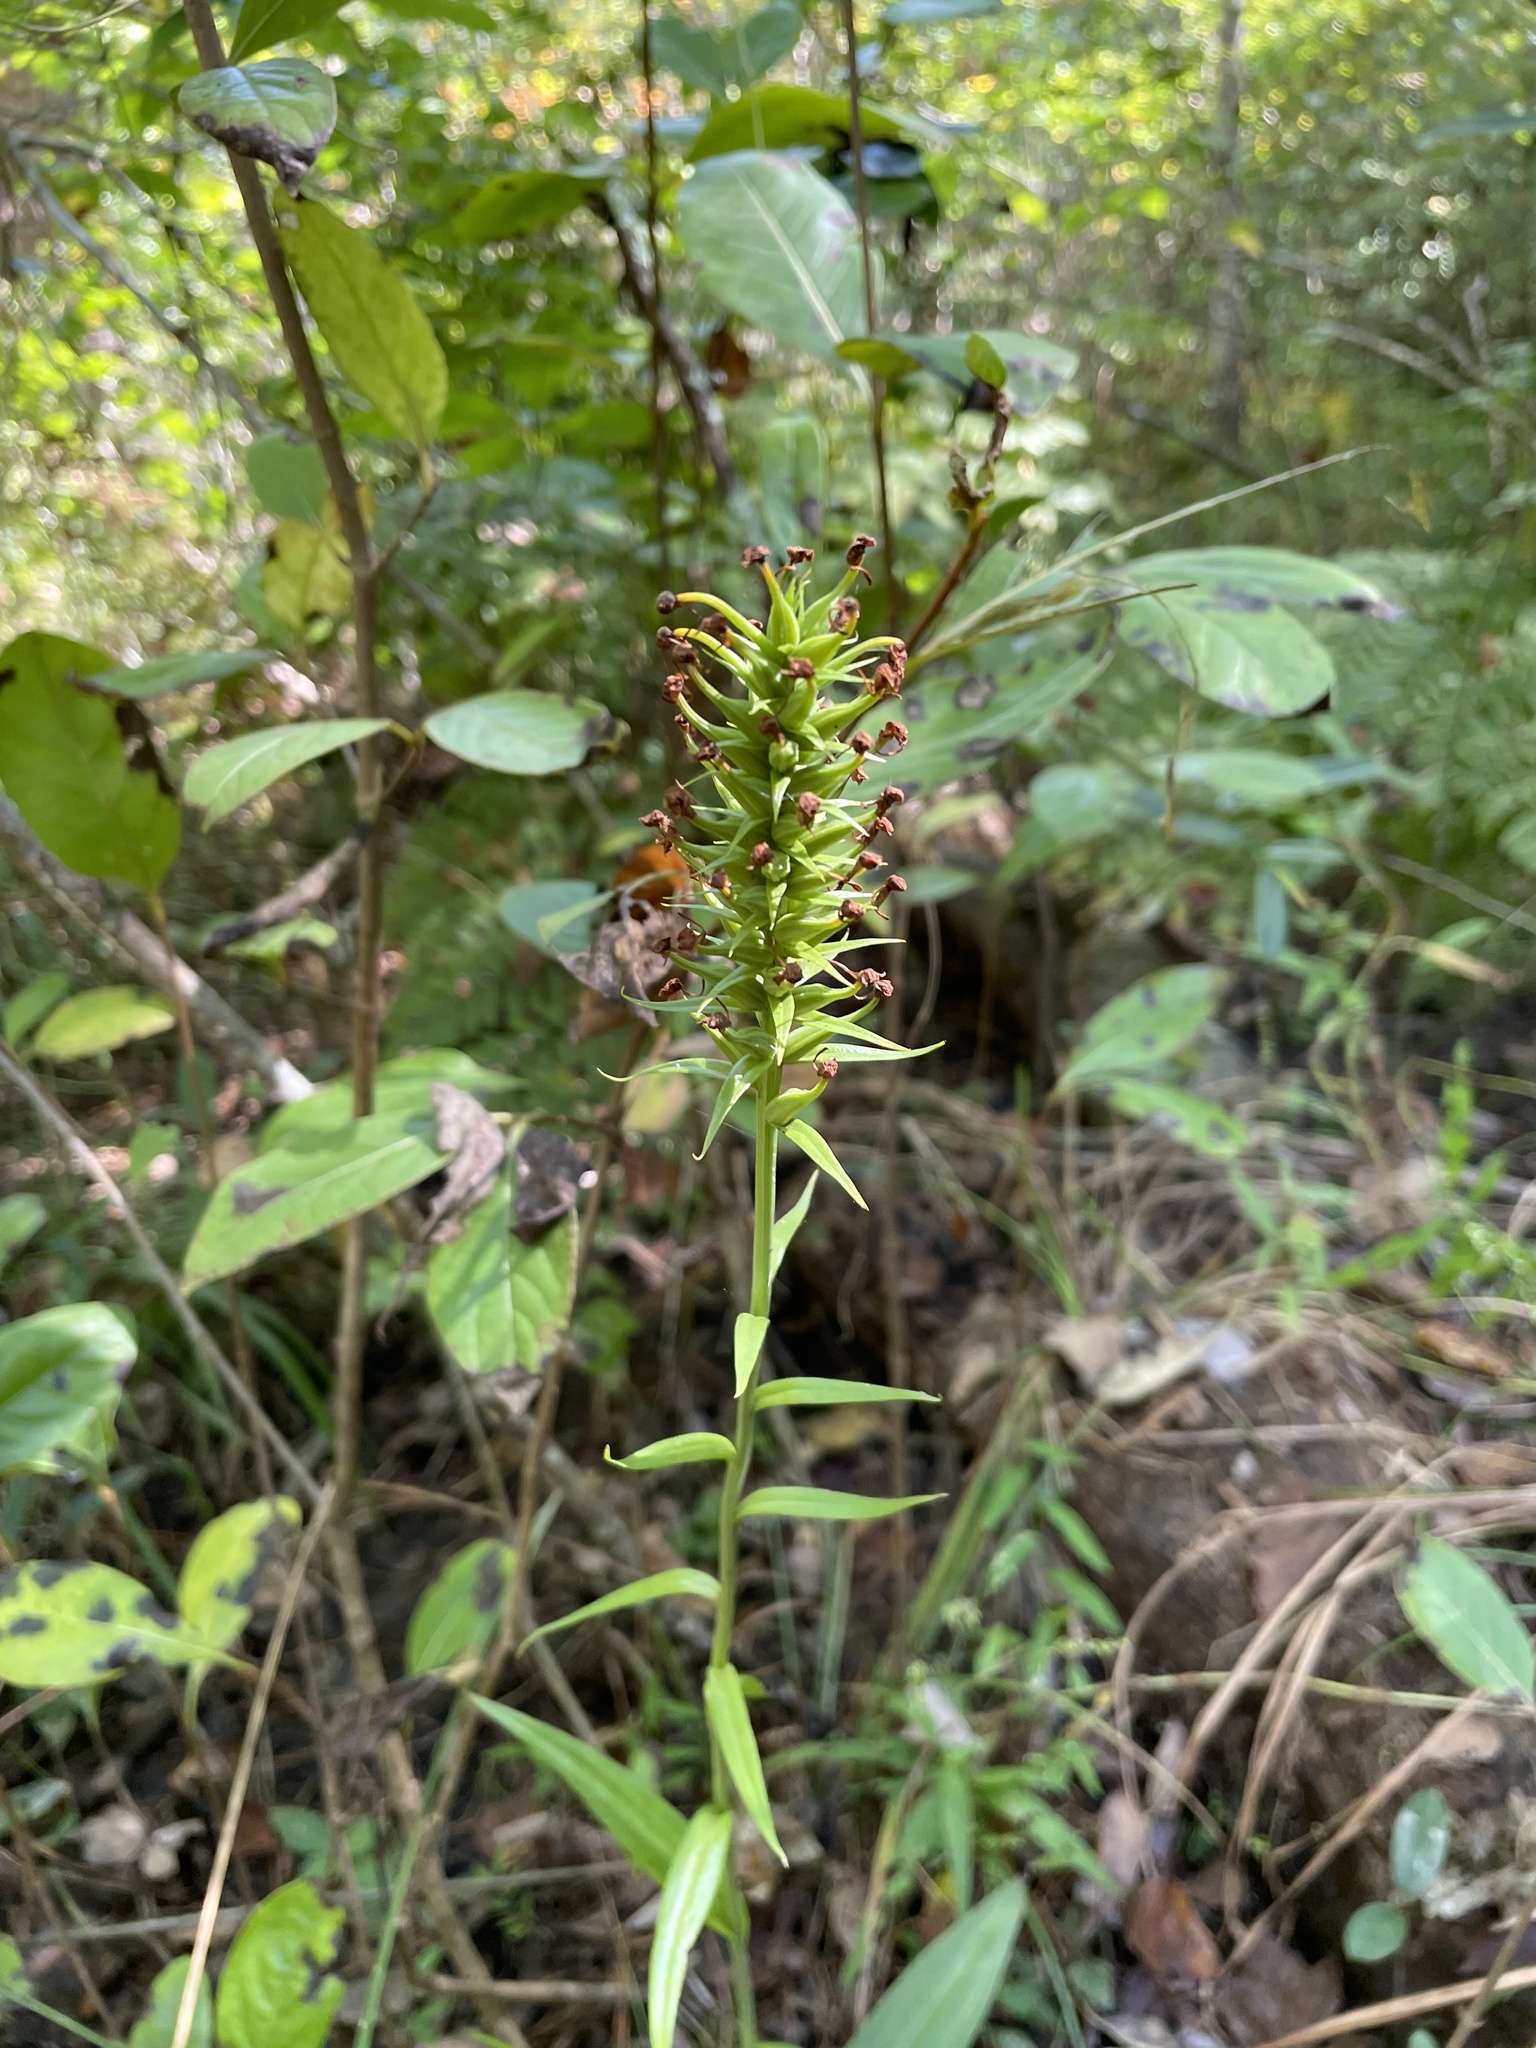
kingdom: Plantae
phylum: Tracheophyta
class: Liliopsida
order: Asparagales
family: Orchidaceae
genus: Platanthera
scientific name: Platanthera cristata
